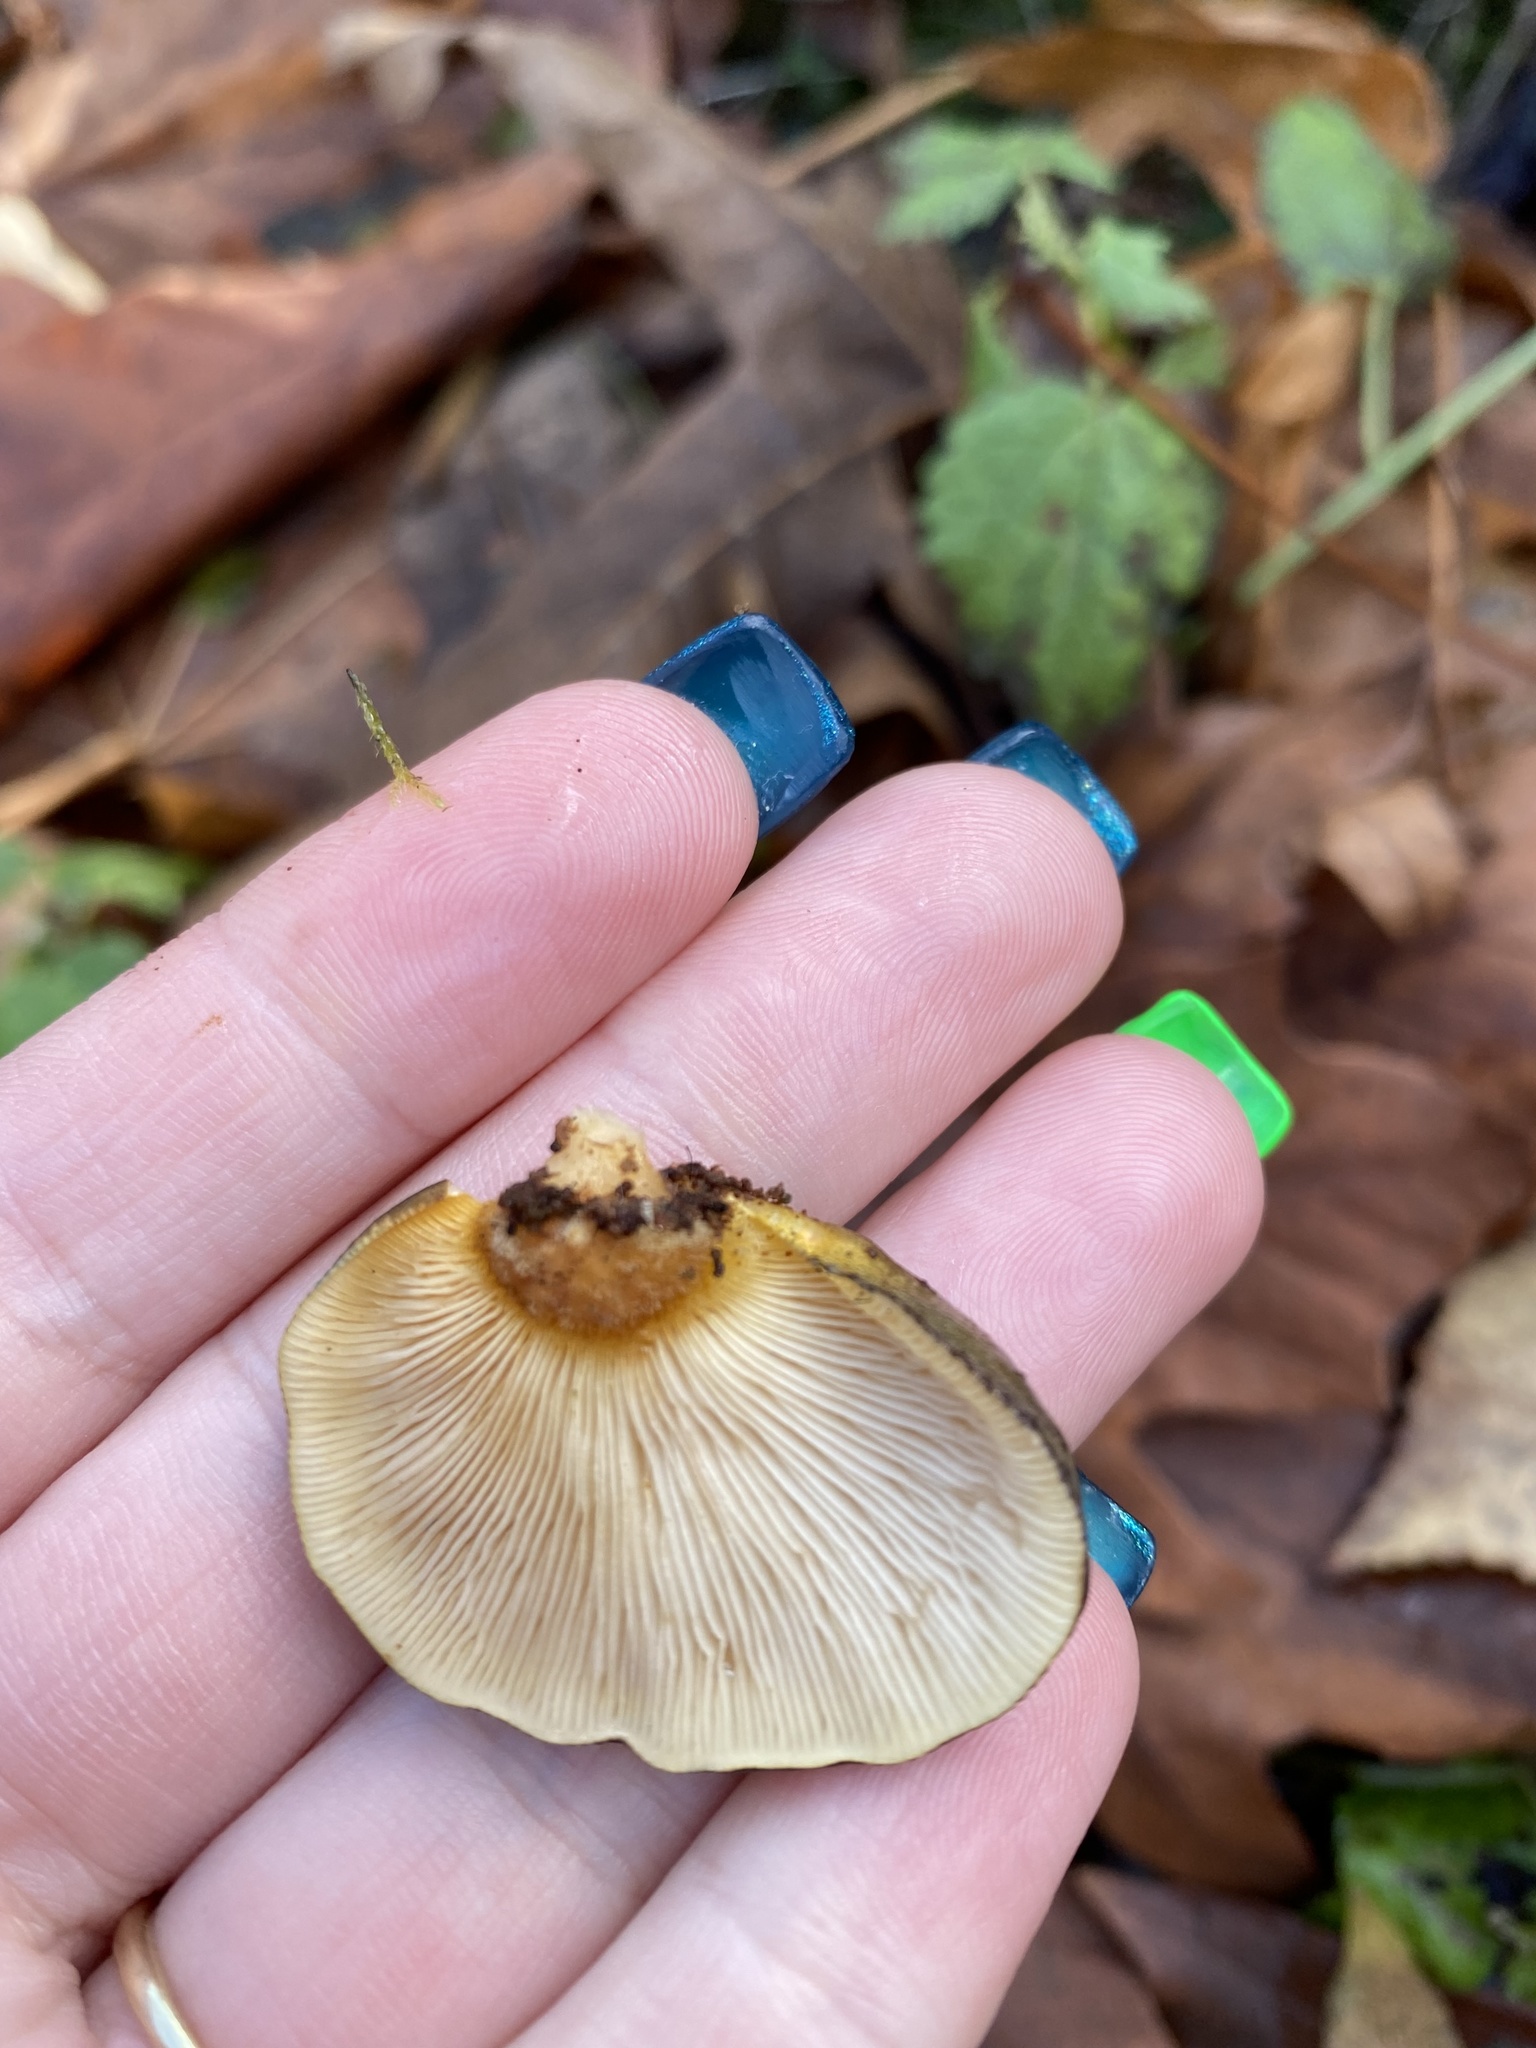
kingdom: Fungi
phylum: Basidiomycota
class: Agaricomycetes
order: Agaricales
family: Sarcomyxaceae
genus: Sarcomyxa
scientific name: Sarcomyxa serotina
